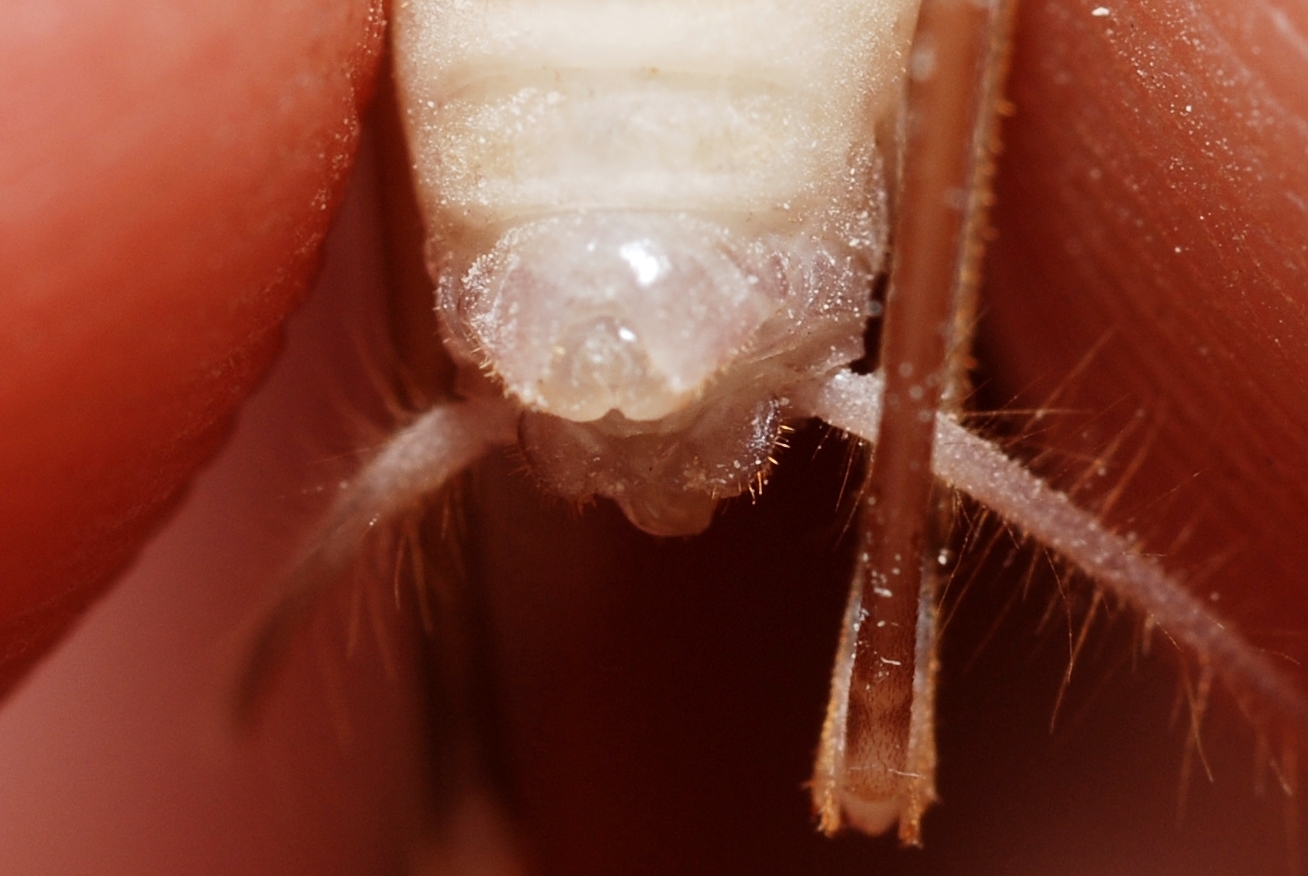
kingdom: Animalia
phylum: Arthropoda
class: Insecta
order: Orthoptera
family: Rhaphidophoridae
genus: Dolichopoda
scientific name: Dolichopoda azami
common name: Azam's cave-cricket
